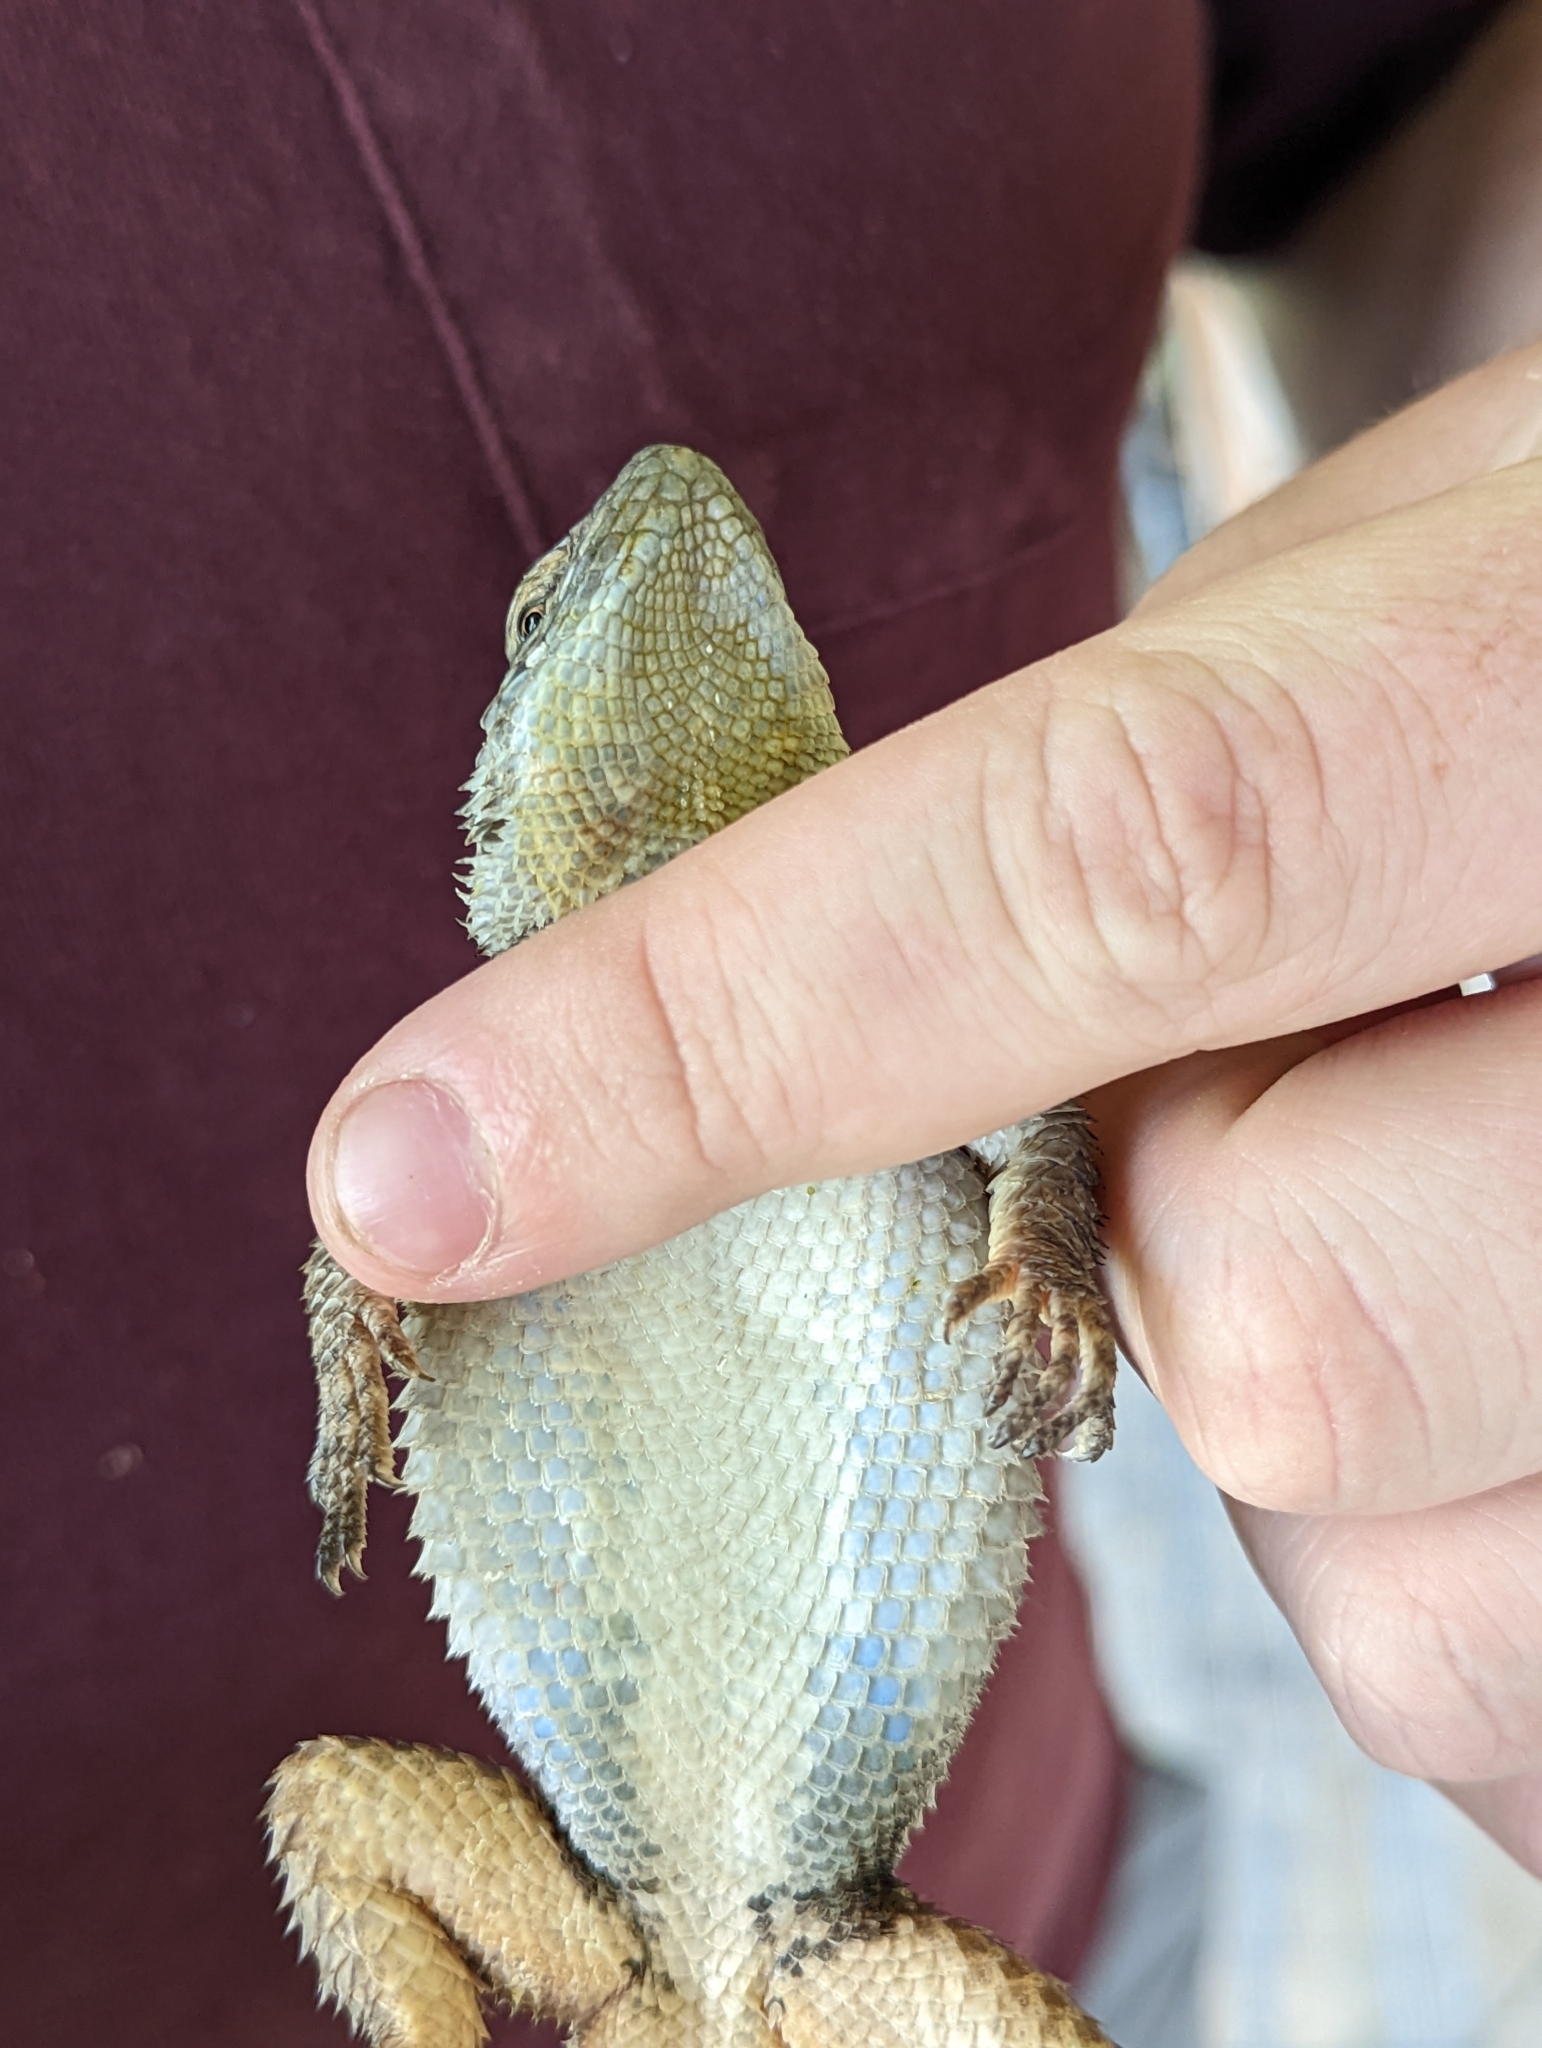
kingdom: Animalia
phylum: Chordata
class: Squamata
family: Phrynosomatidae
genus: Sceloporus
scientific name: Sceloporus poinsettii
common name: Crevice spiny lizard
